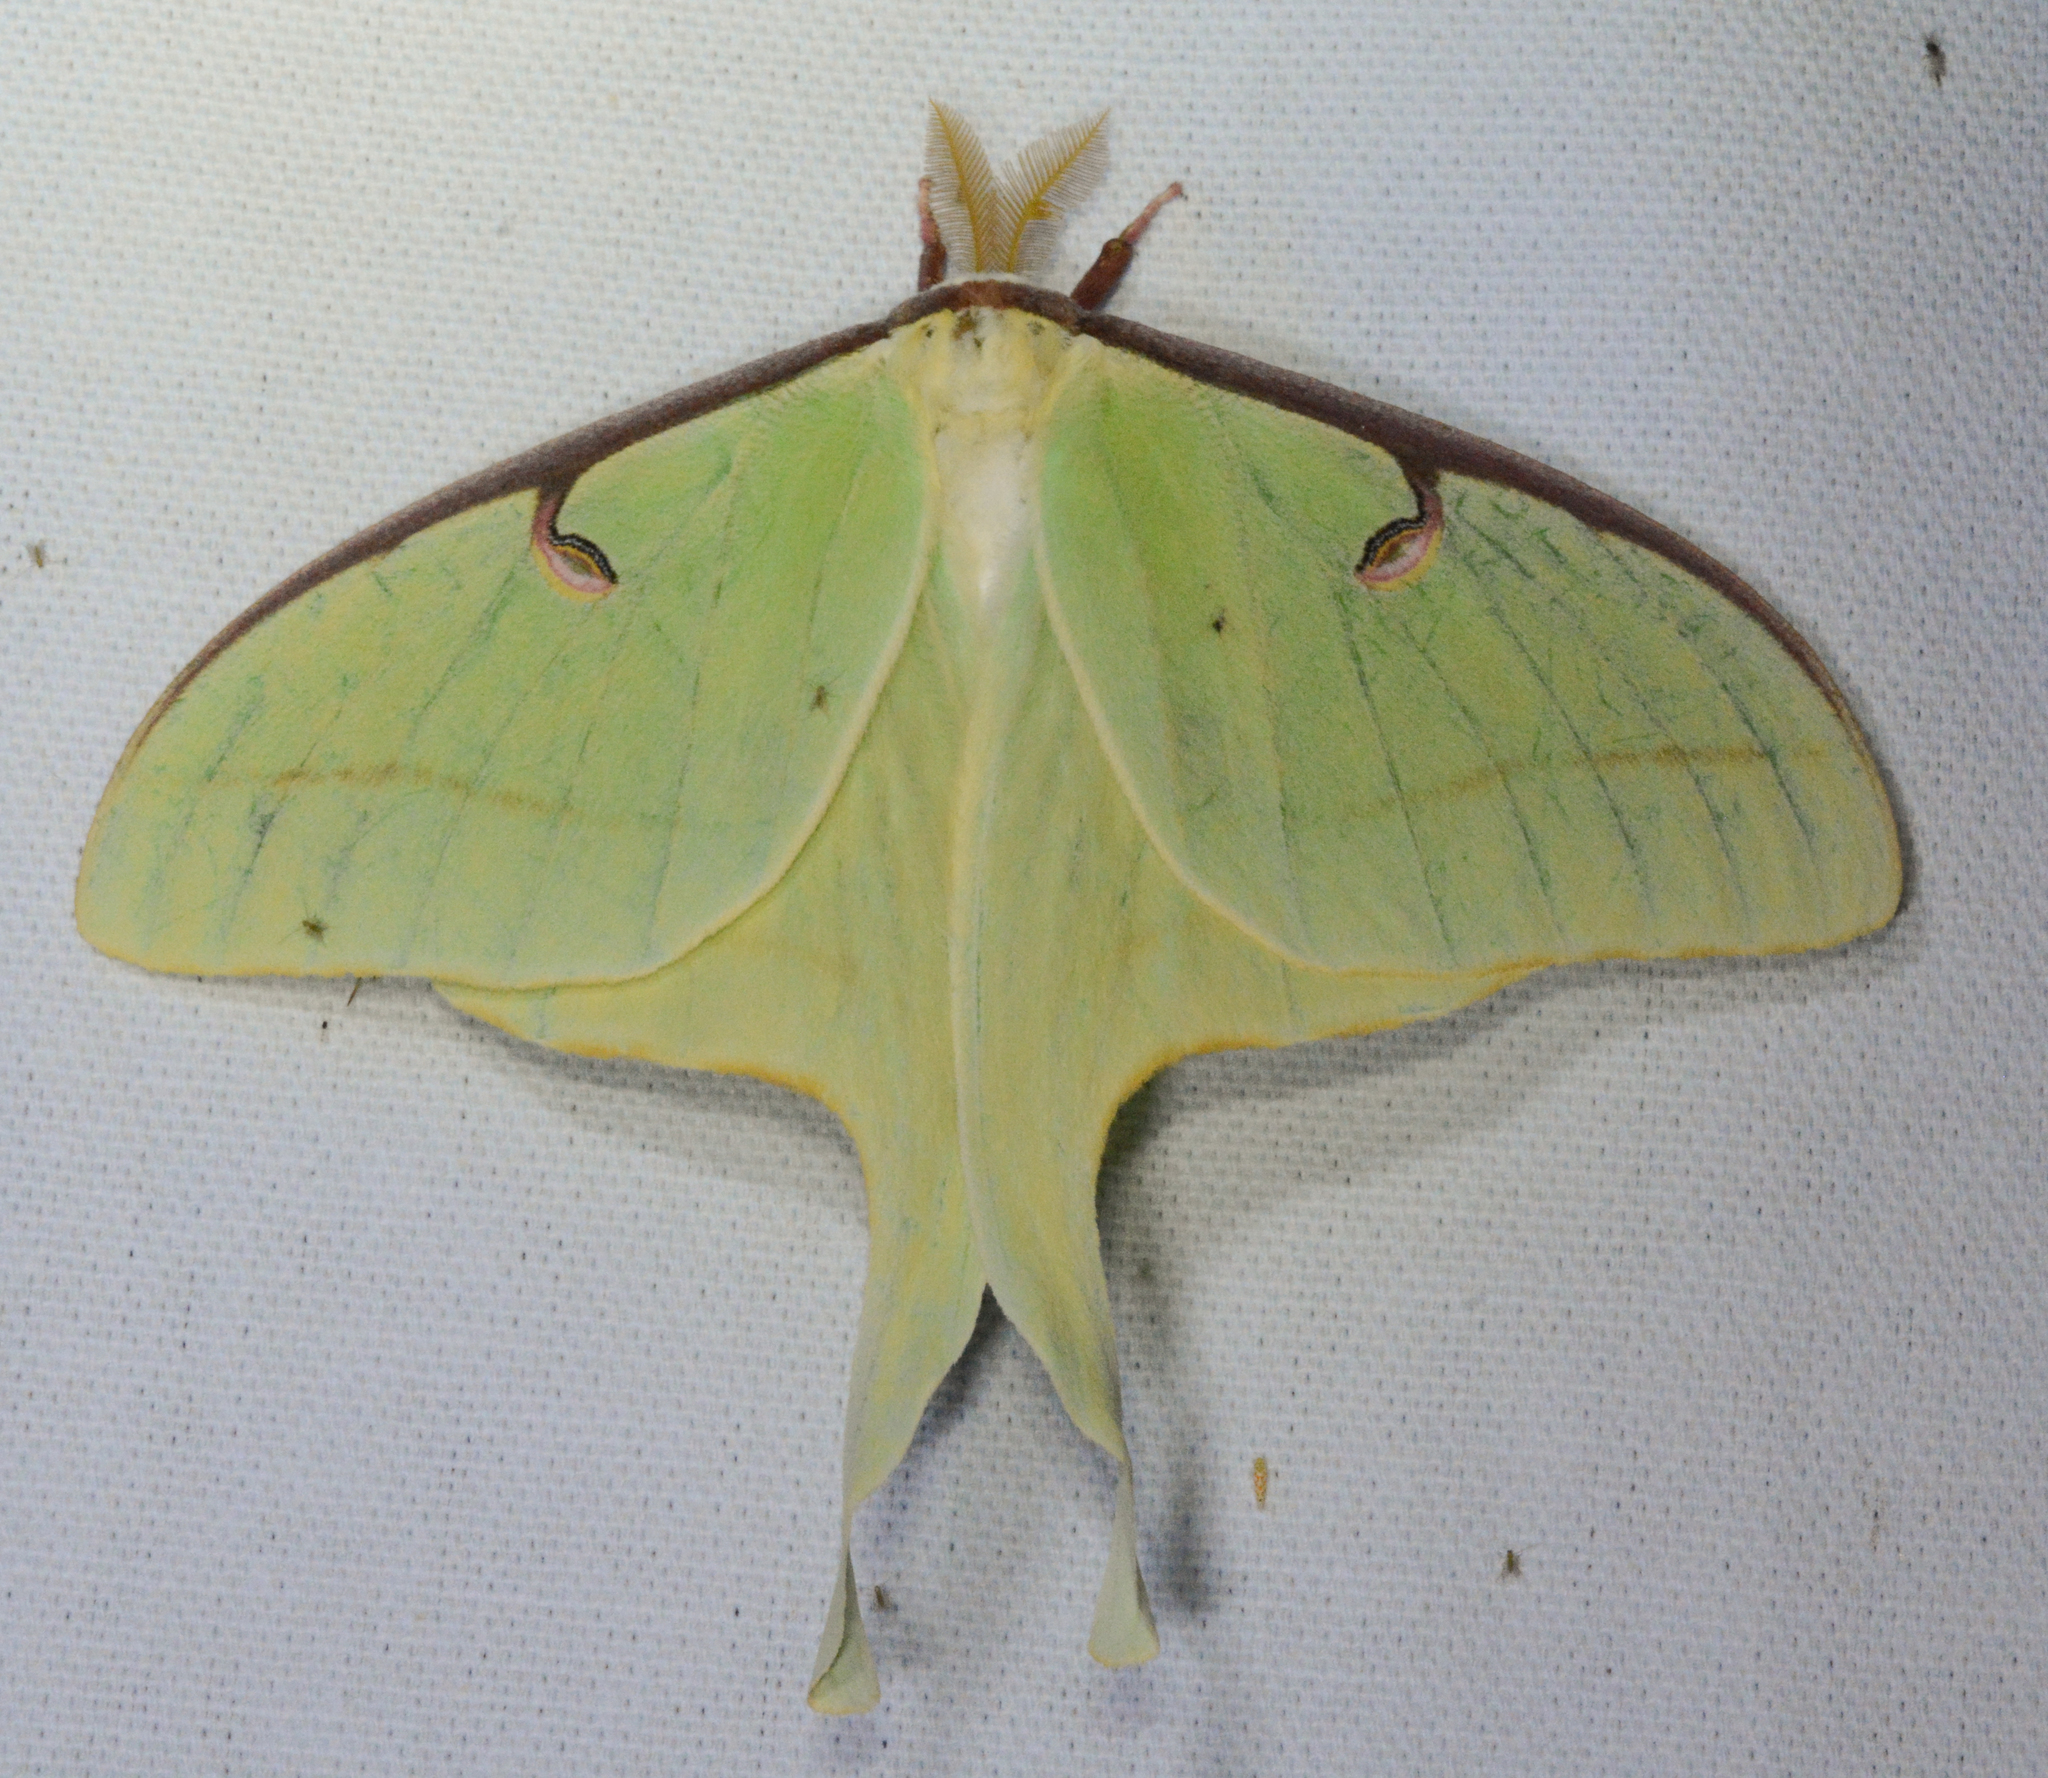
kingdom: Animalia
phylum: Arthropoda
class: Insecta
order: Lepidoptera
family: Saturniidae
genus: Actias
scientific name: Actias luna
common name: Luna moth
